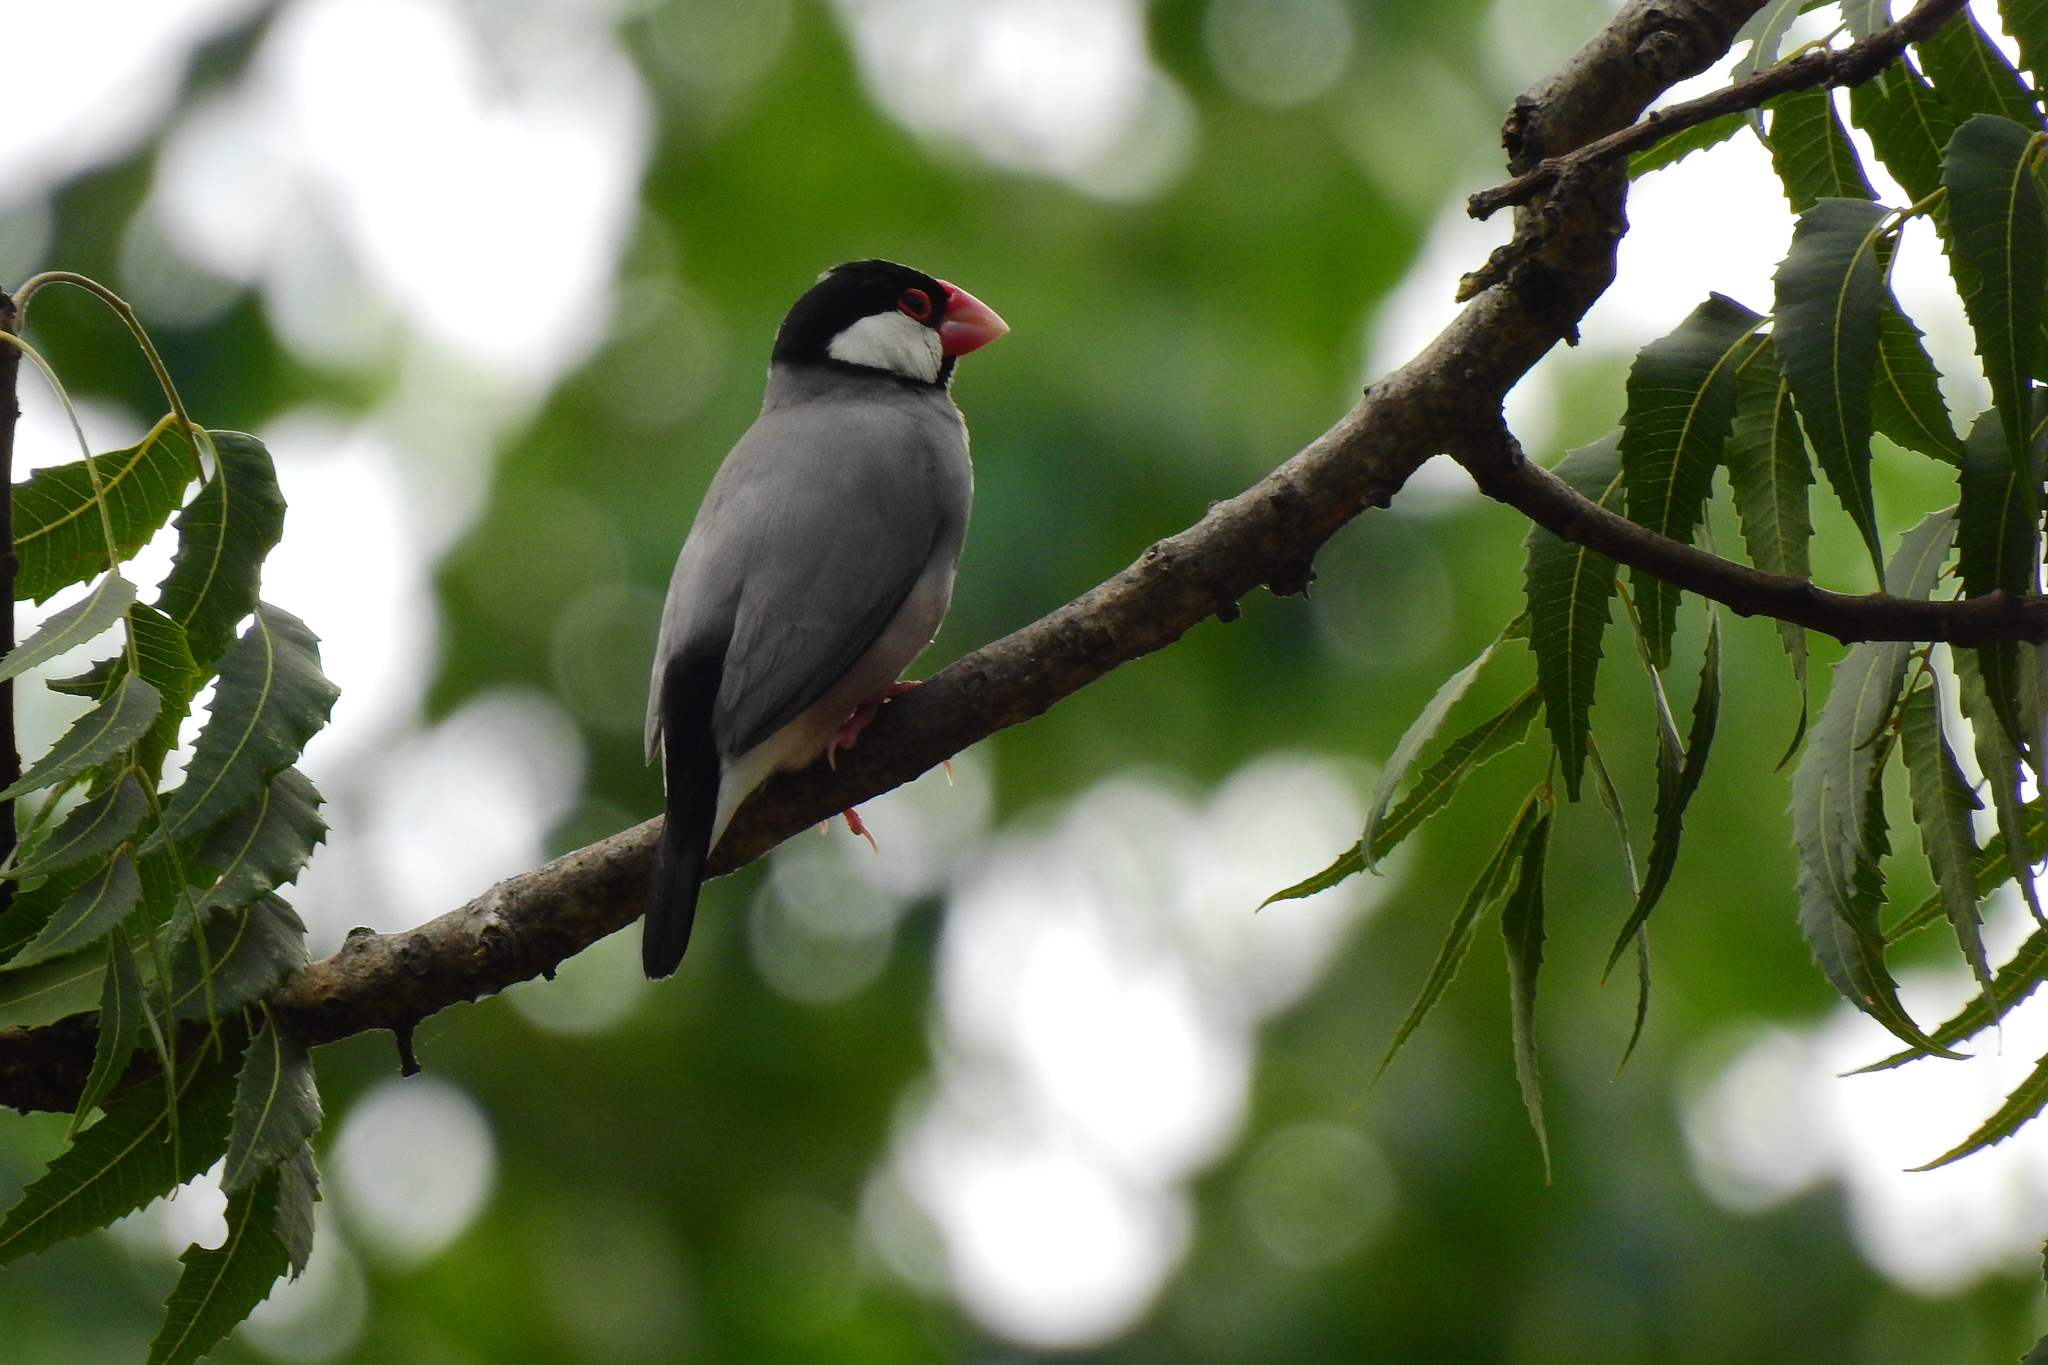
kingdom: Animalia
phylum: Chordata
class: Aves
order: Passeriformes
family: Estrildidae
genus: Lonchura
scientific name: Lonchura oryzivora
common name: Java sparrow
